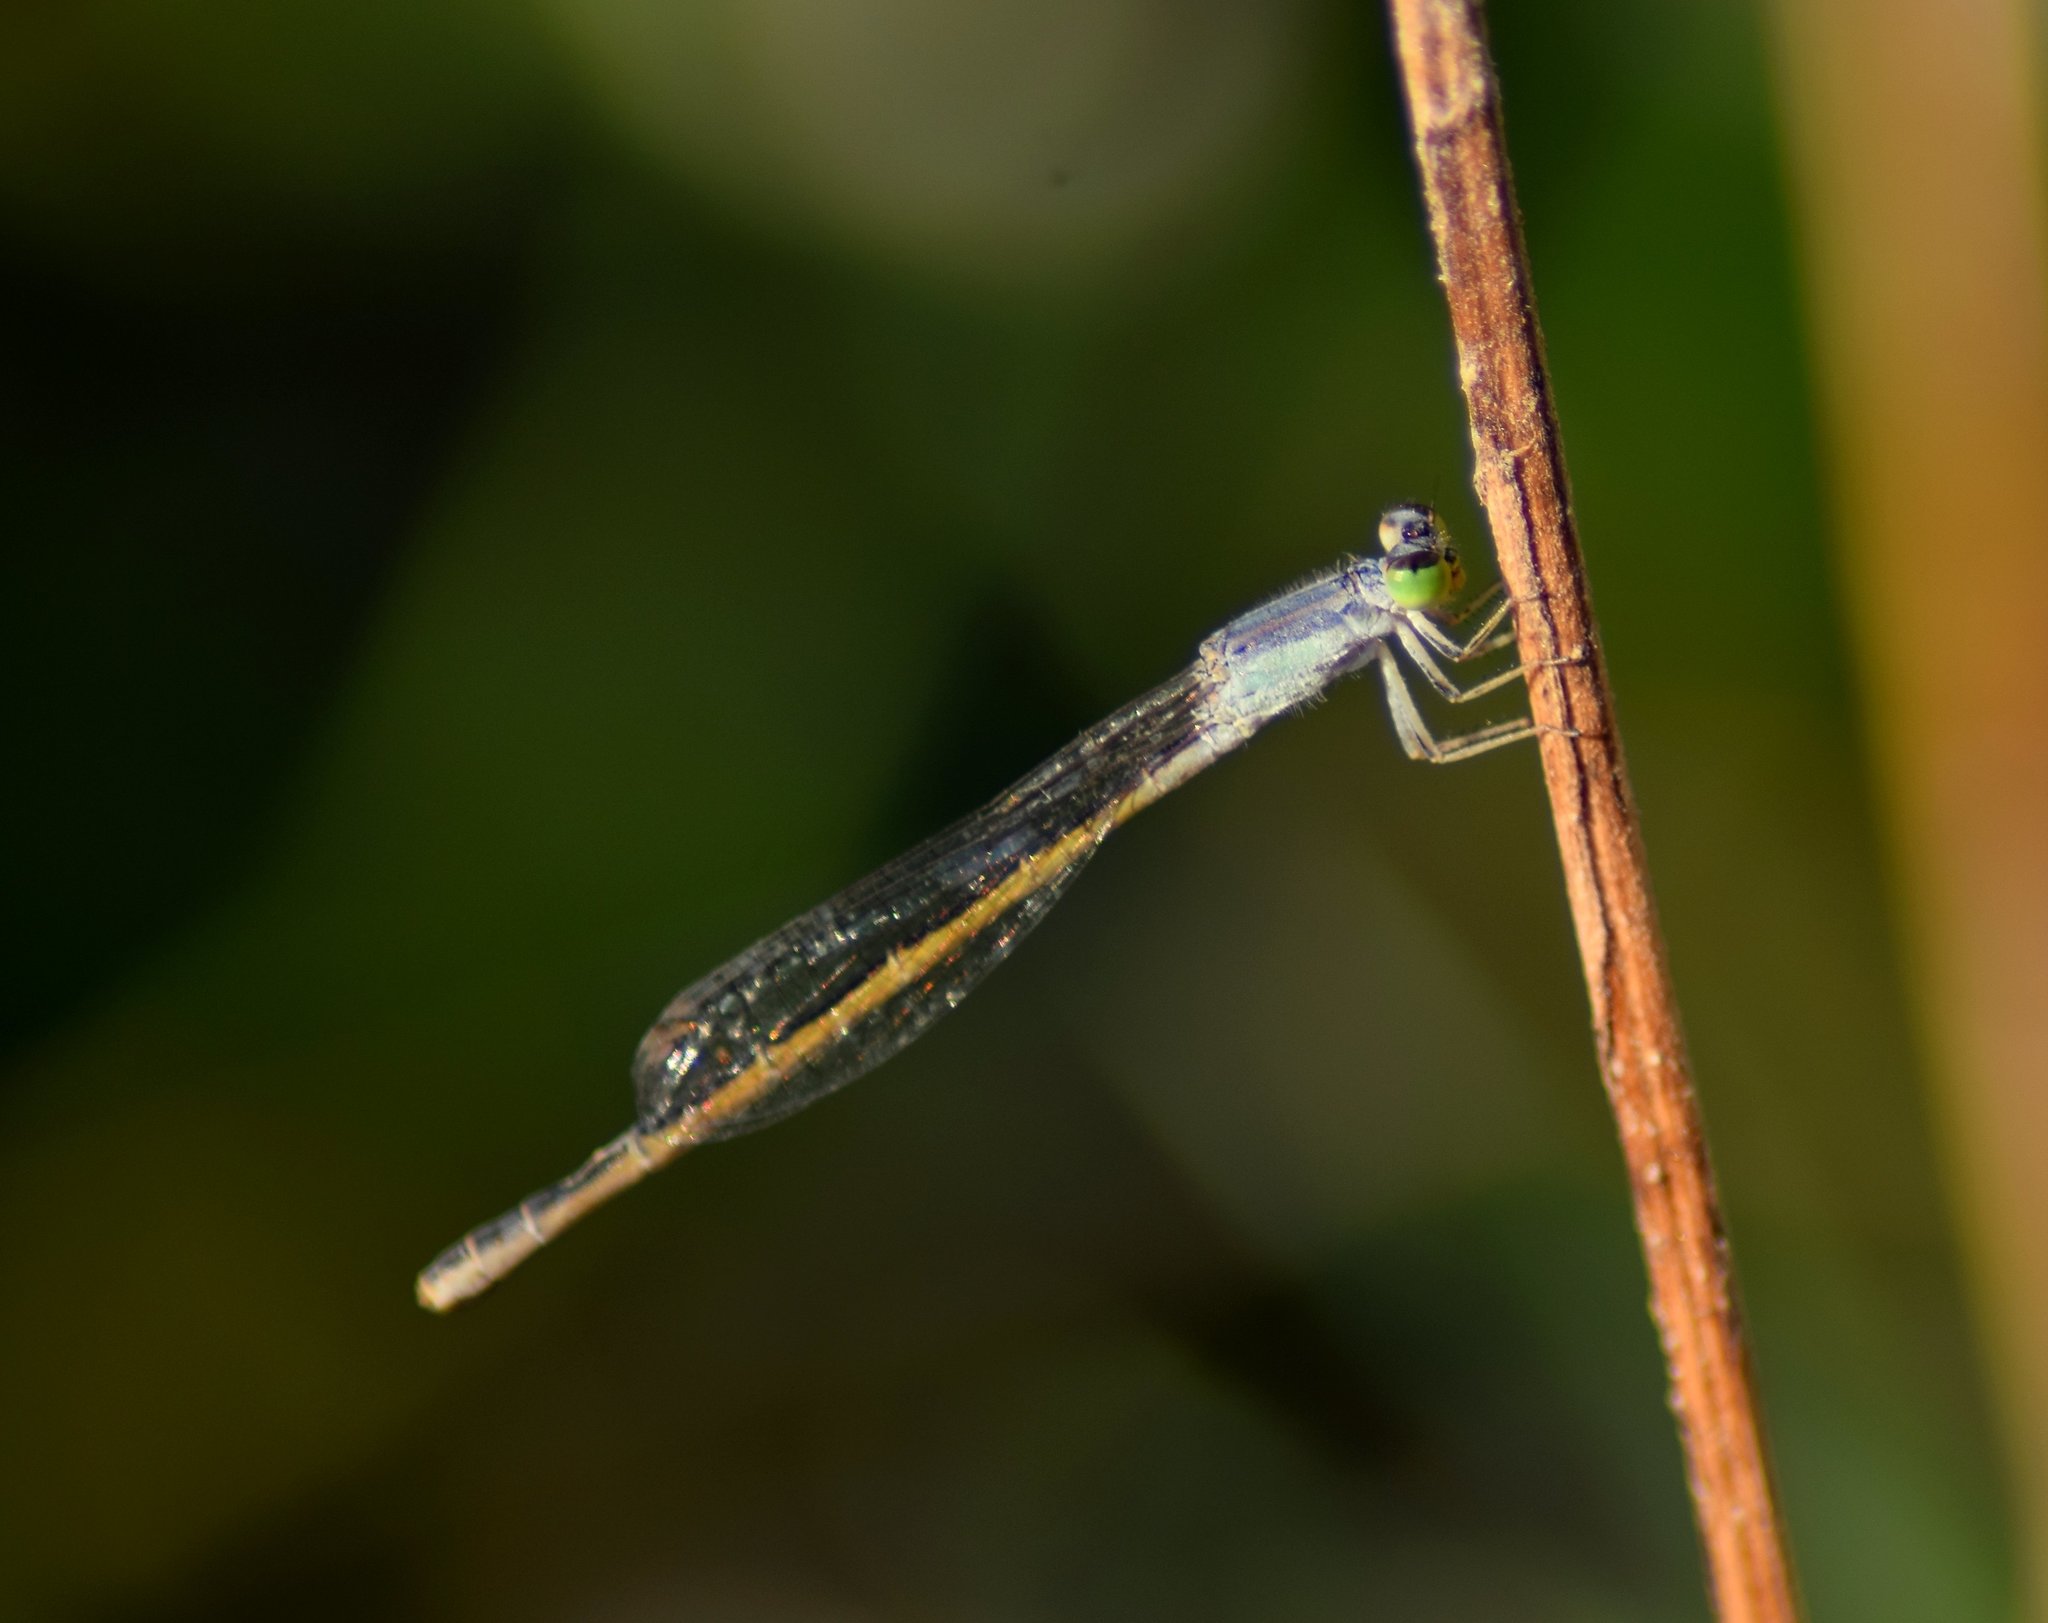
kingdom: Animalia
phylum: Arthropoda
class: Insecta
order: Odonata
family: Coenagrionidae
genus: Ischnura
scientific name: Ischnura rubilio
